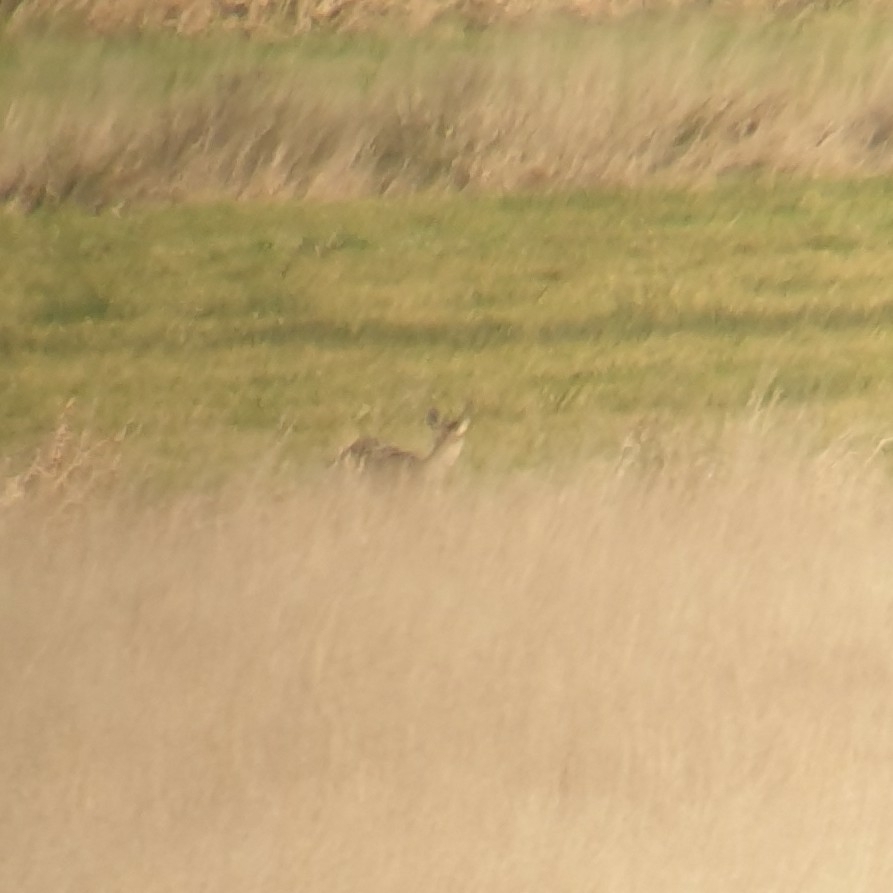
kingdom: Animalia
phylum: Chordata
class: Mammalia
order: Artiodactyla
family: Cervidae
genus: Capreolus
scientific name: Capreolus capreolus
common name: Western roe deer
